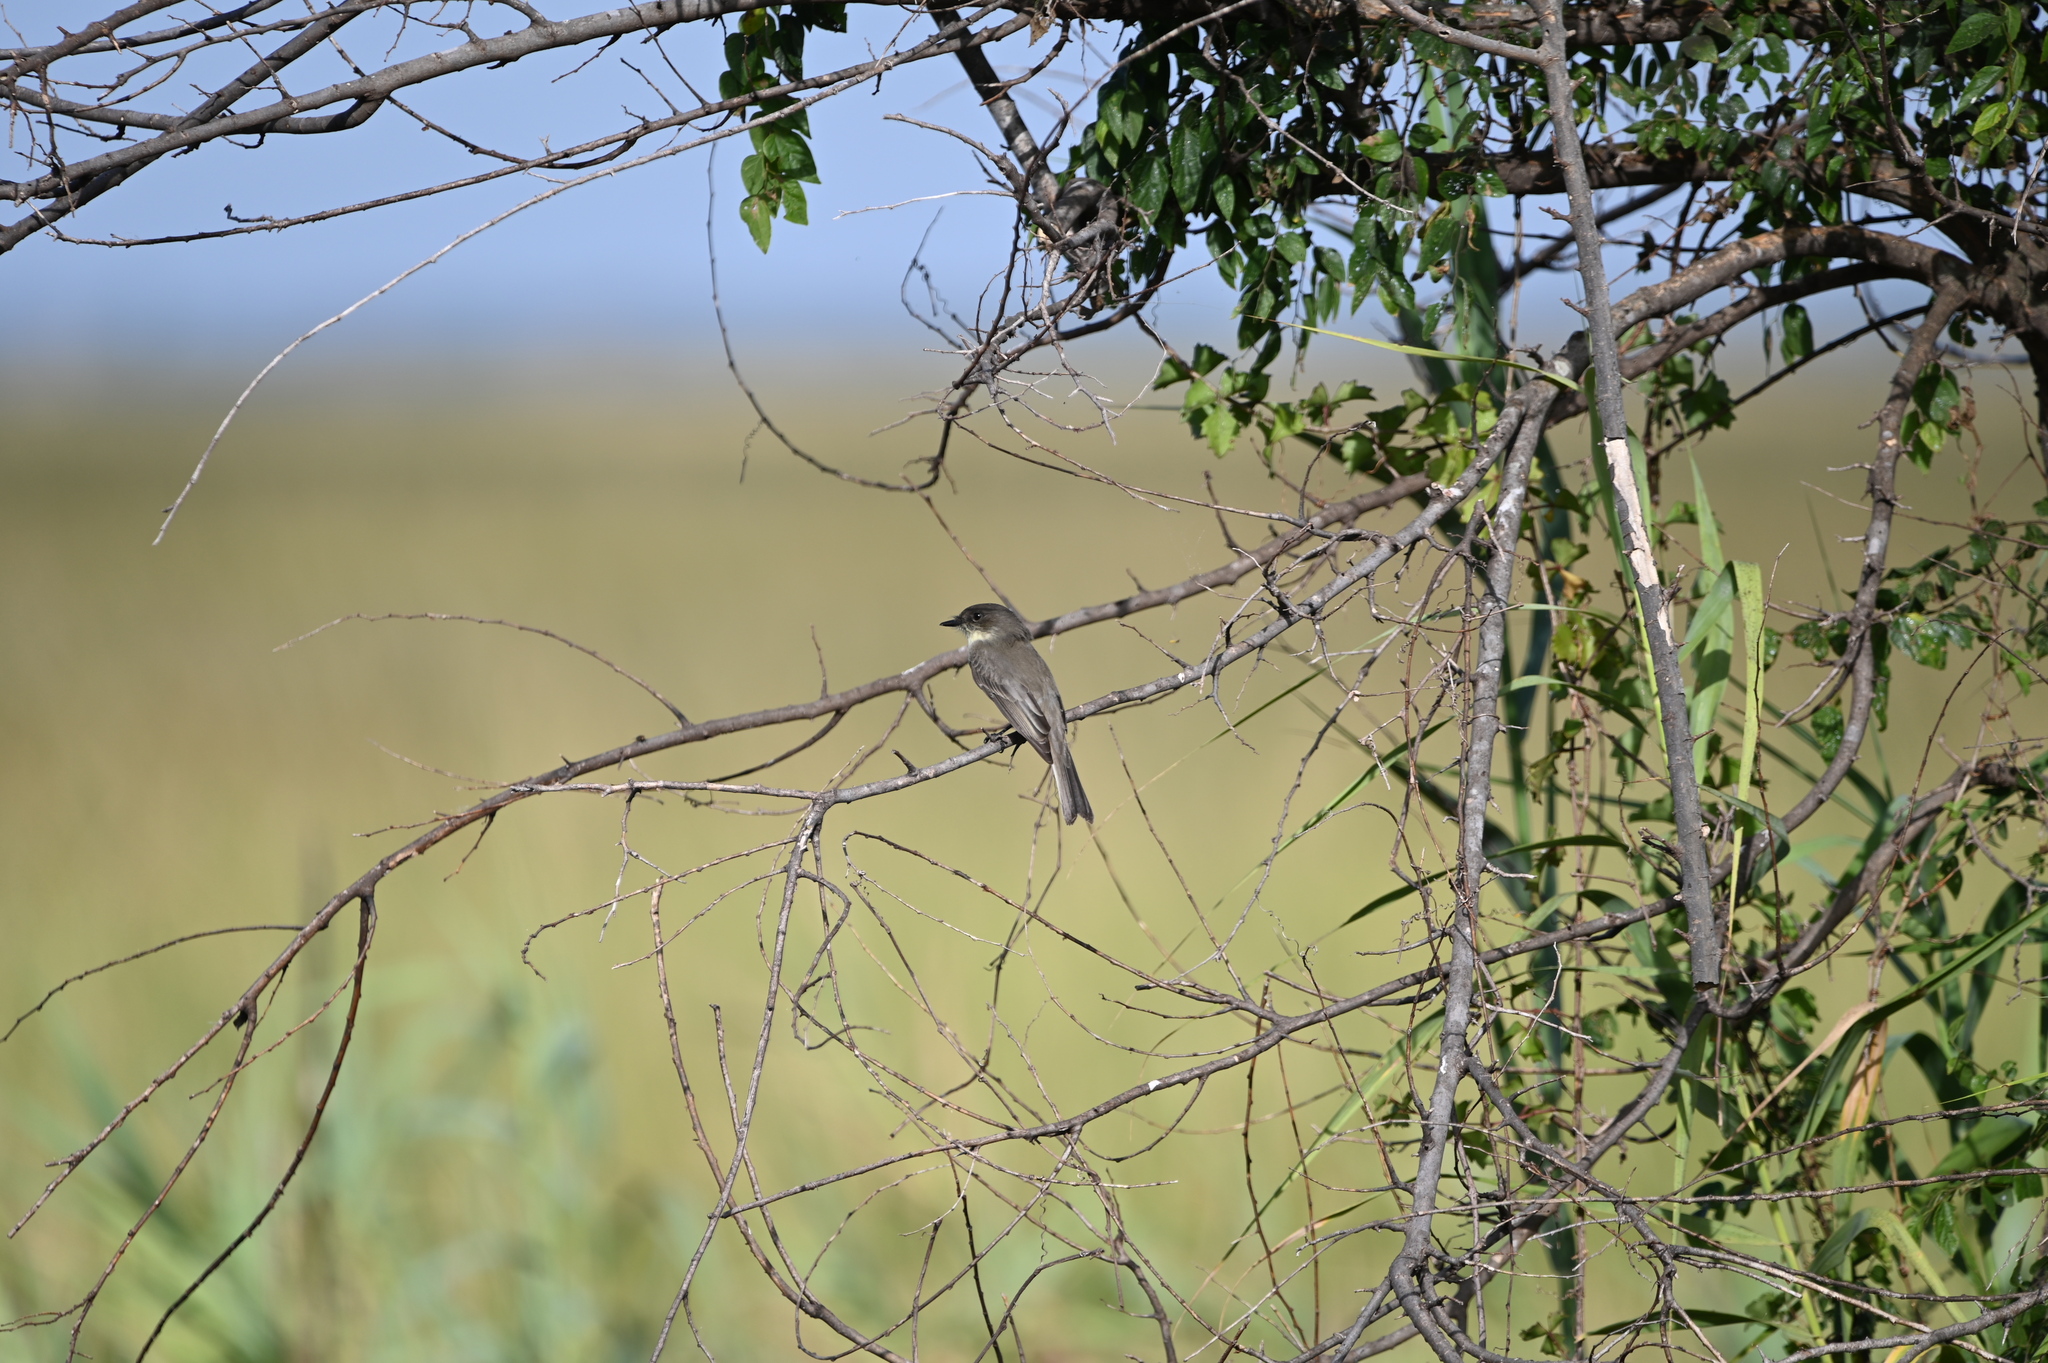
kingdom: Animalia
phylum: Chordata
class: Aves
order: Passeriformes
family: Tyrannidae
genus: Sayornis
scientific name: Sayornis phoebe
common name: Eastern phoebe
